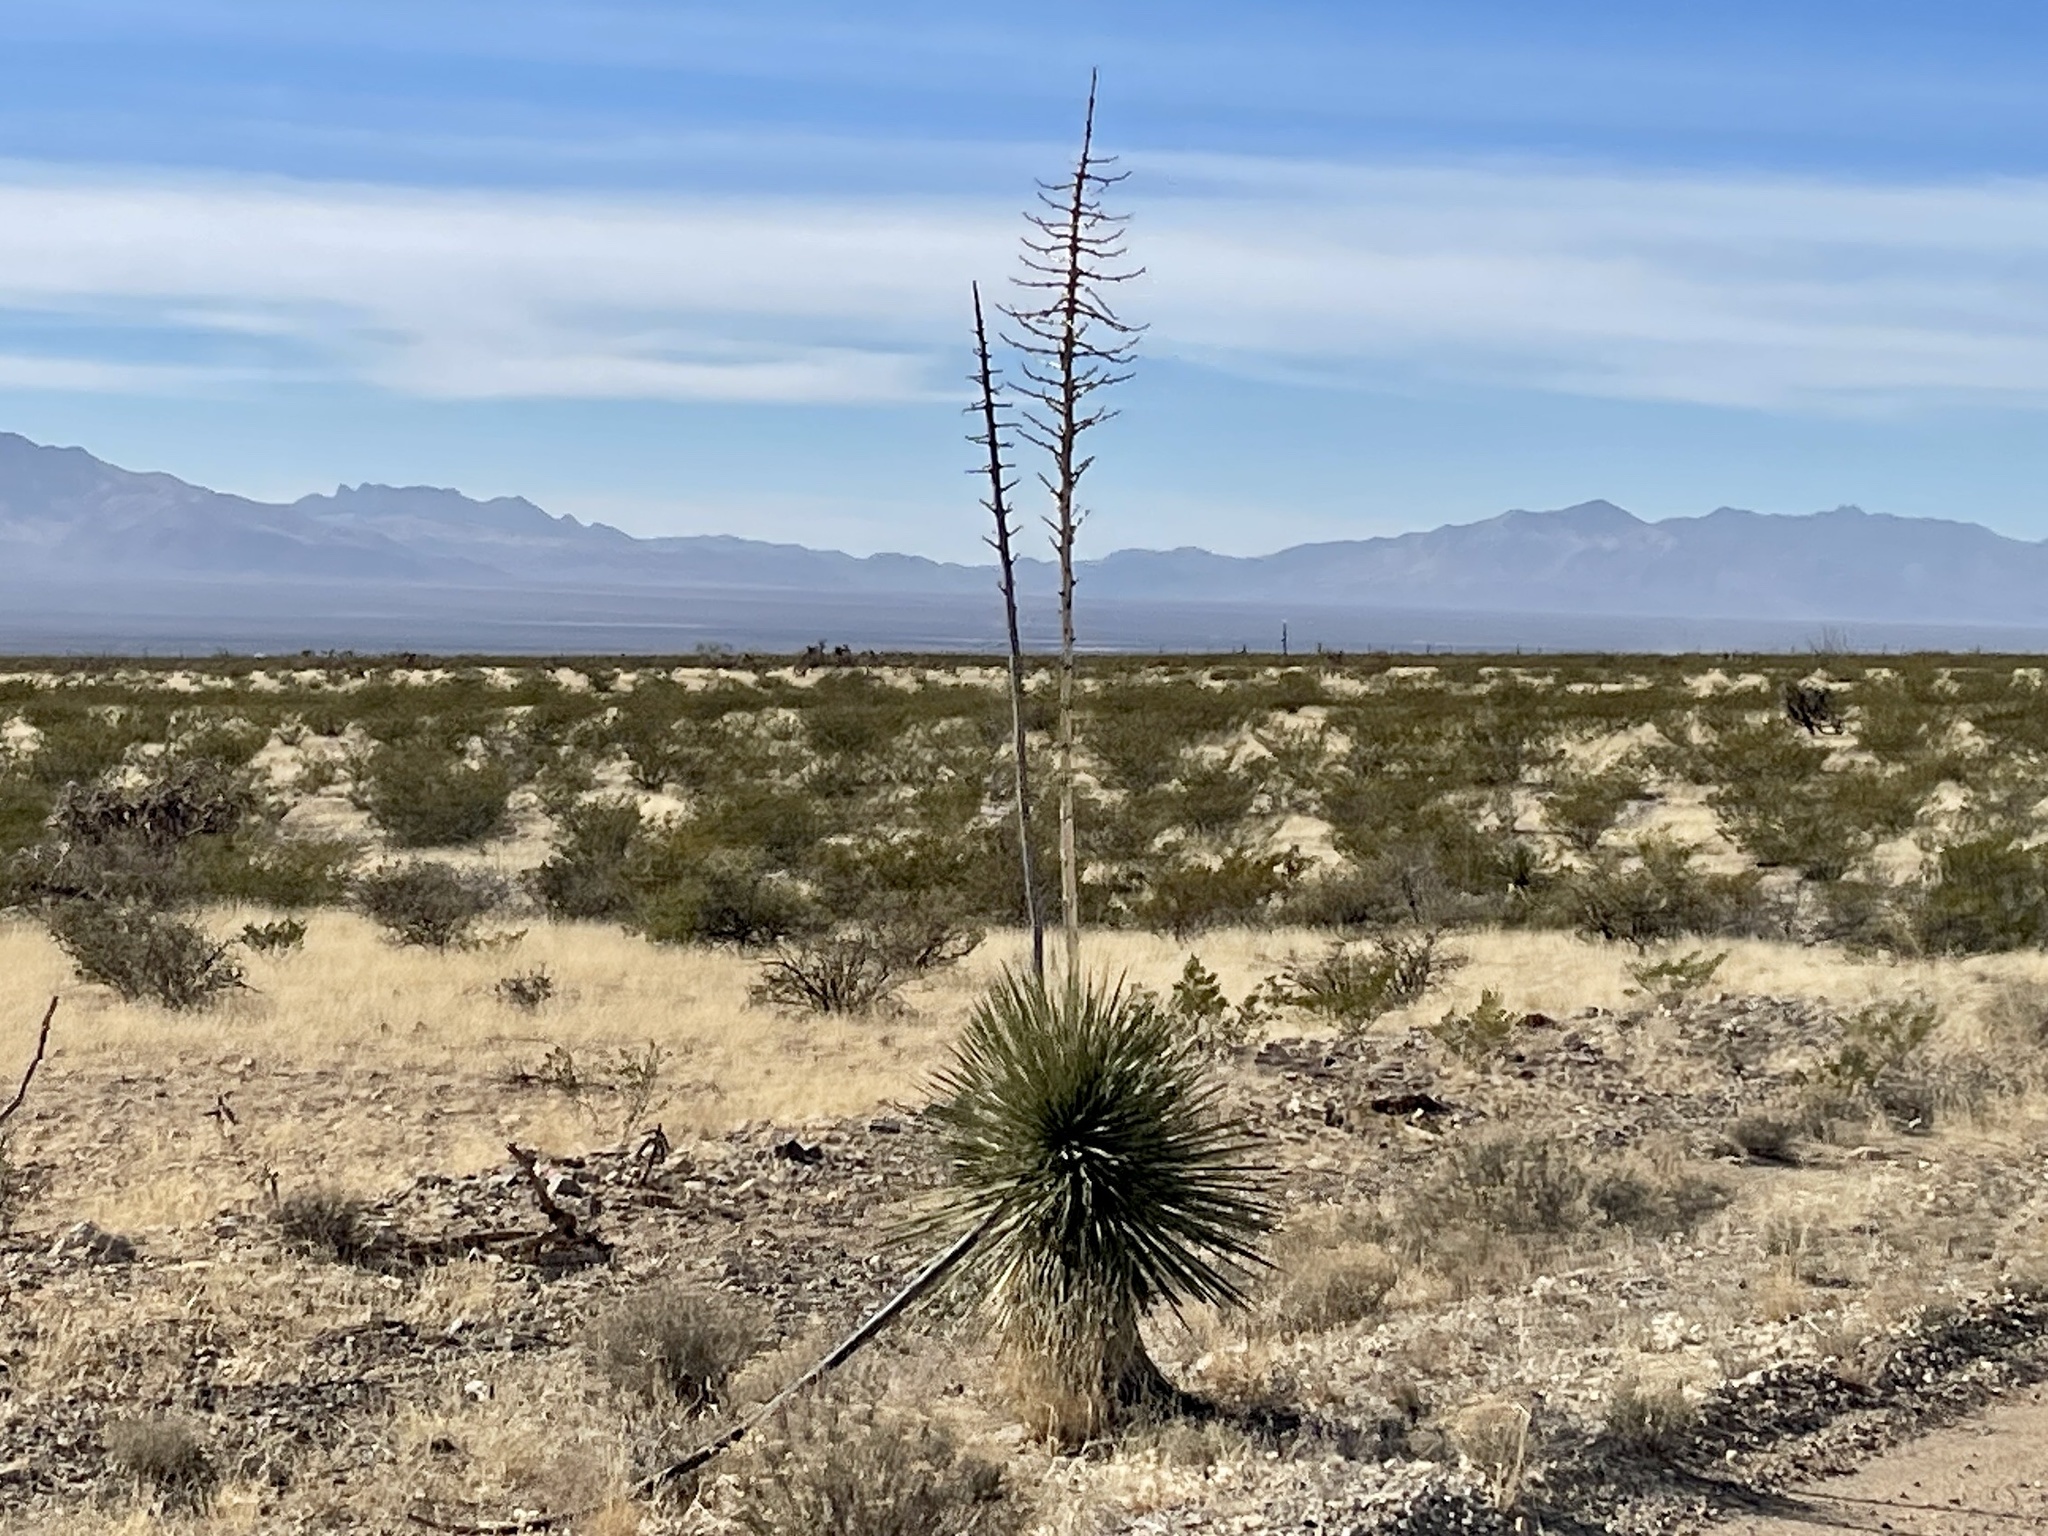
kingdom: Plantae
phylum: Tracheophyta
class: Liliopsida
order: Asparagales
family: Asparagaceae
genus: Yucca
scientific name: Yucca elata
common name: Palmella
